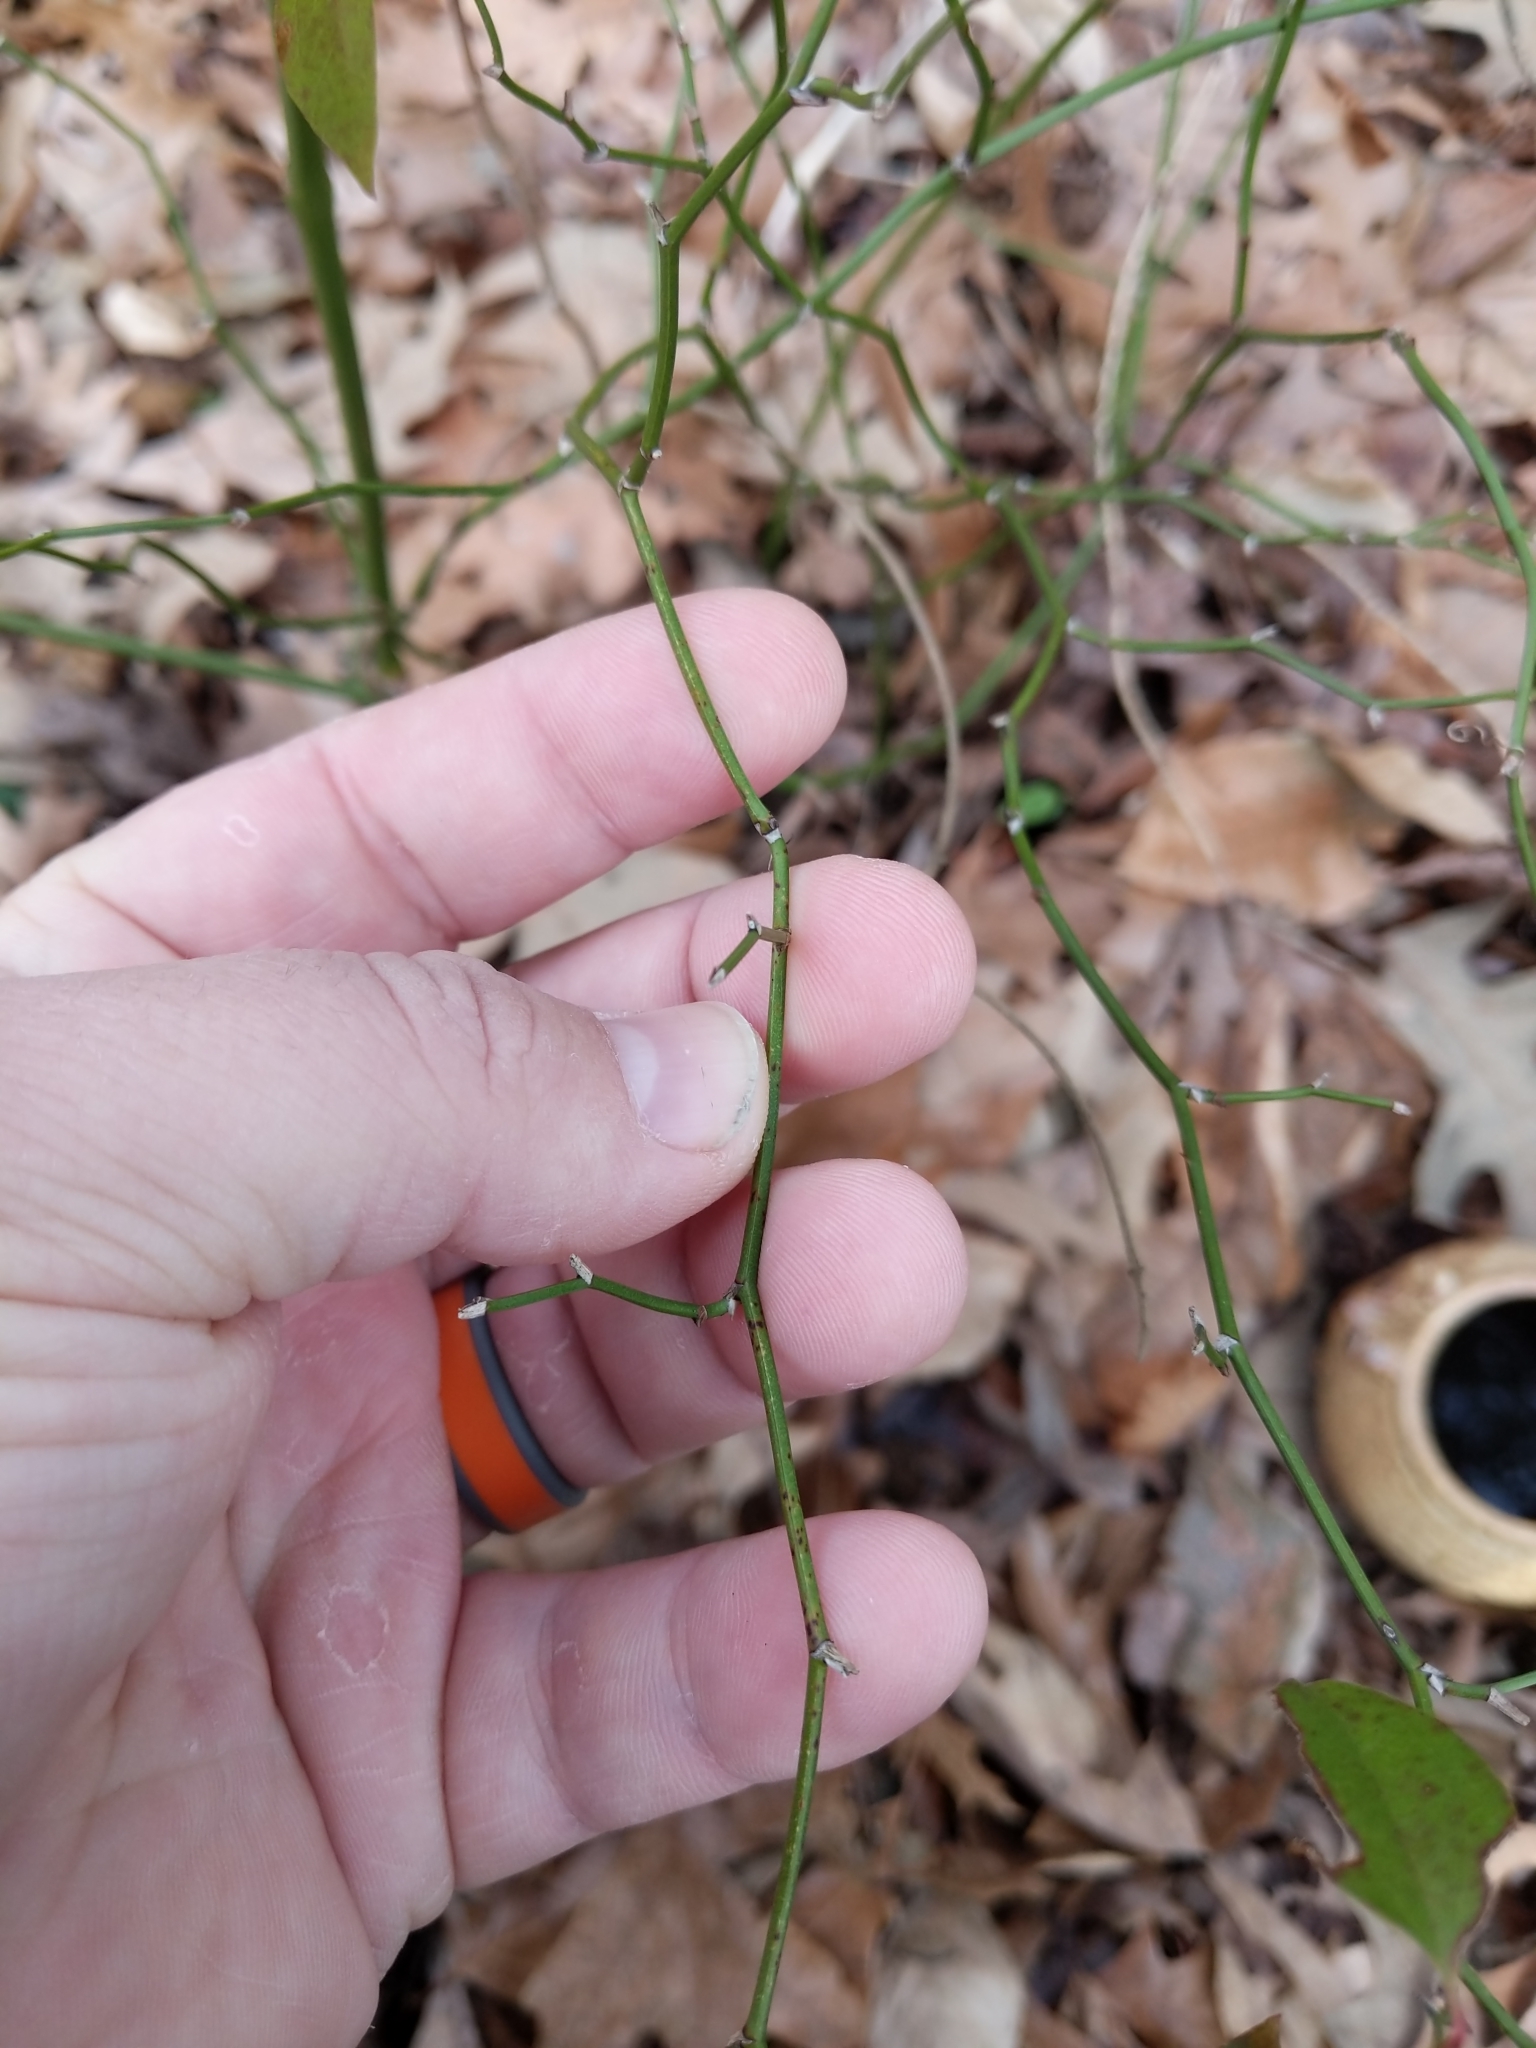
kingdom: Plantae
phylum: Tracheophyta
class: Liliopsida
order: Liliales
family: Smilacaceae
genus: Smilax
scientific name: Smilax rotundifolia
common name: Bullbriar
